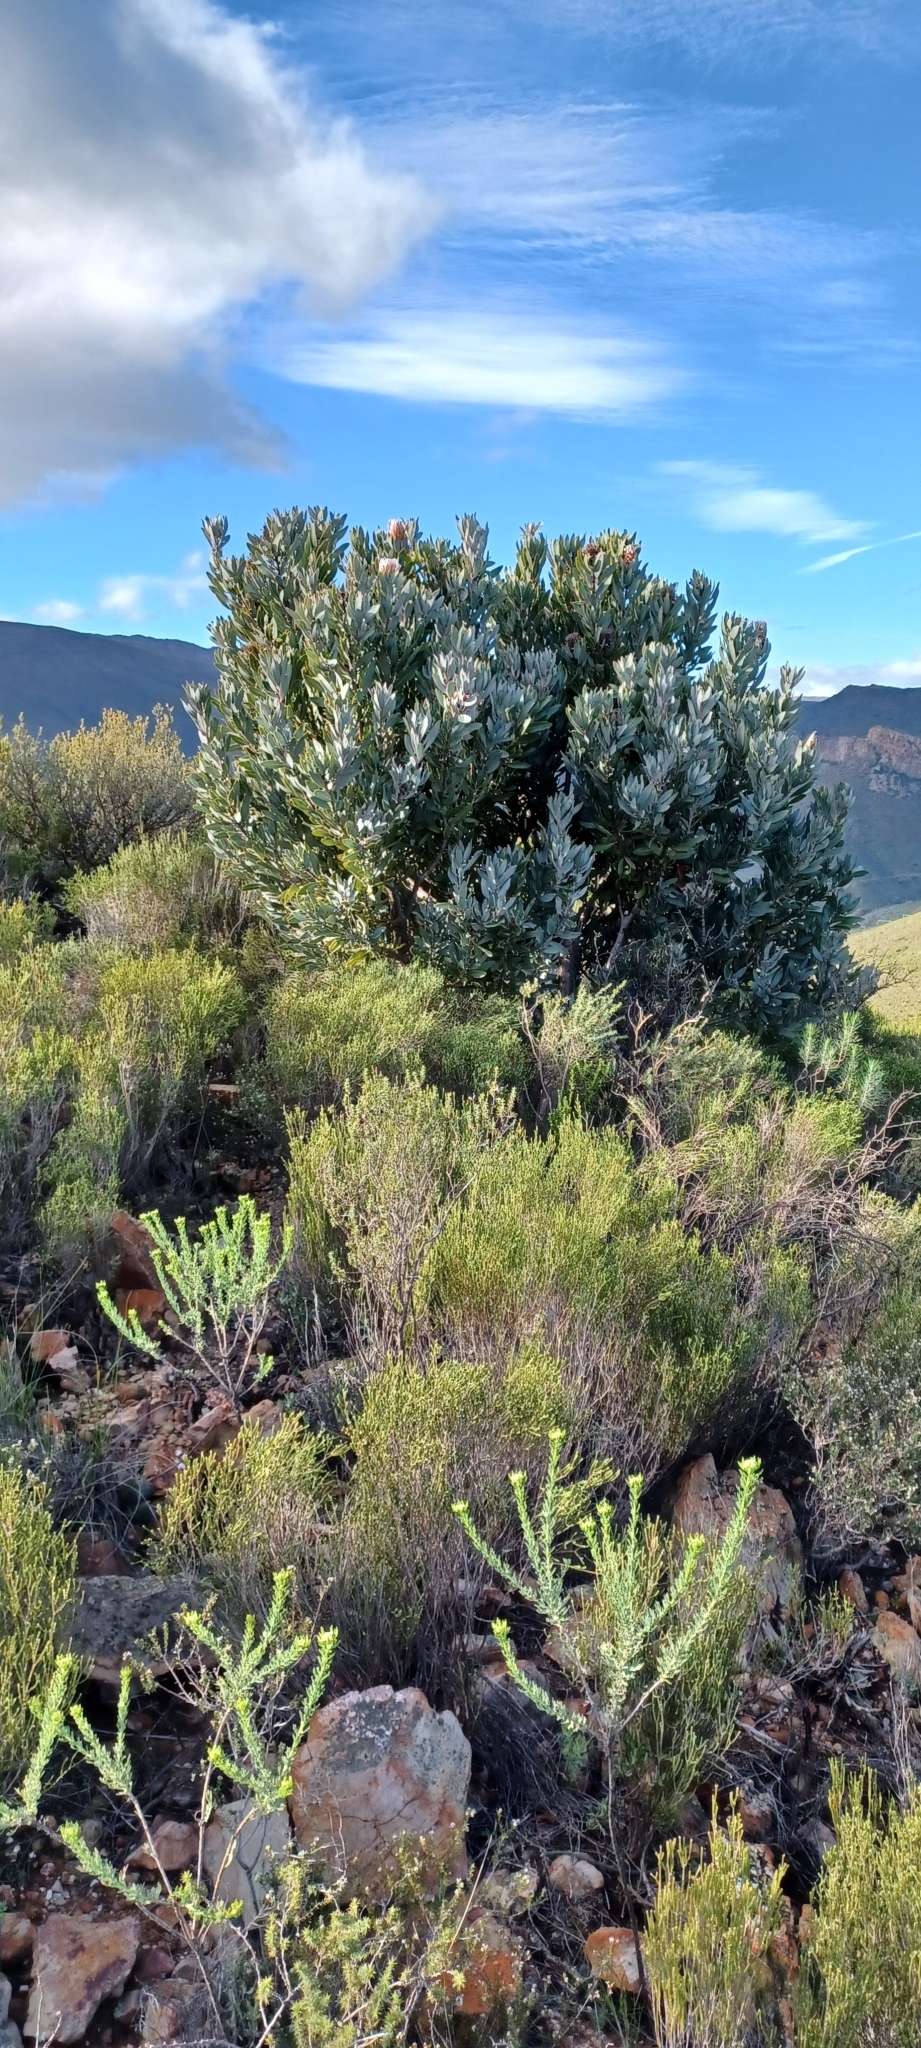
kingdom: Plantae
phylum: Tracheophyta
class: Magnoliopsida
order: Proteales
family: Proteaceae
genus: Protea
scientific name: Protea laurifolia
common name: Grey-leaf sugarbsh
